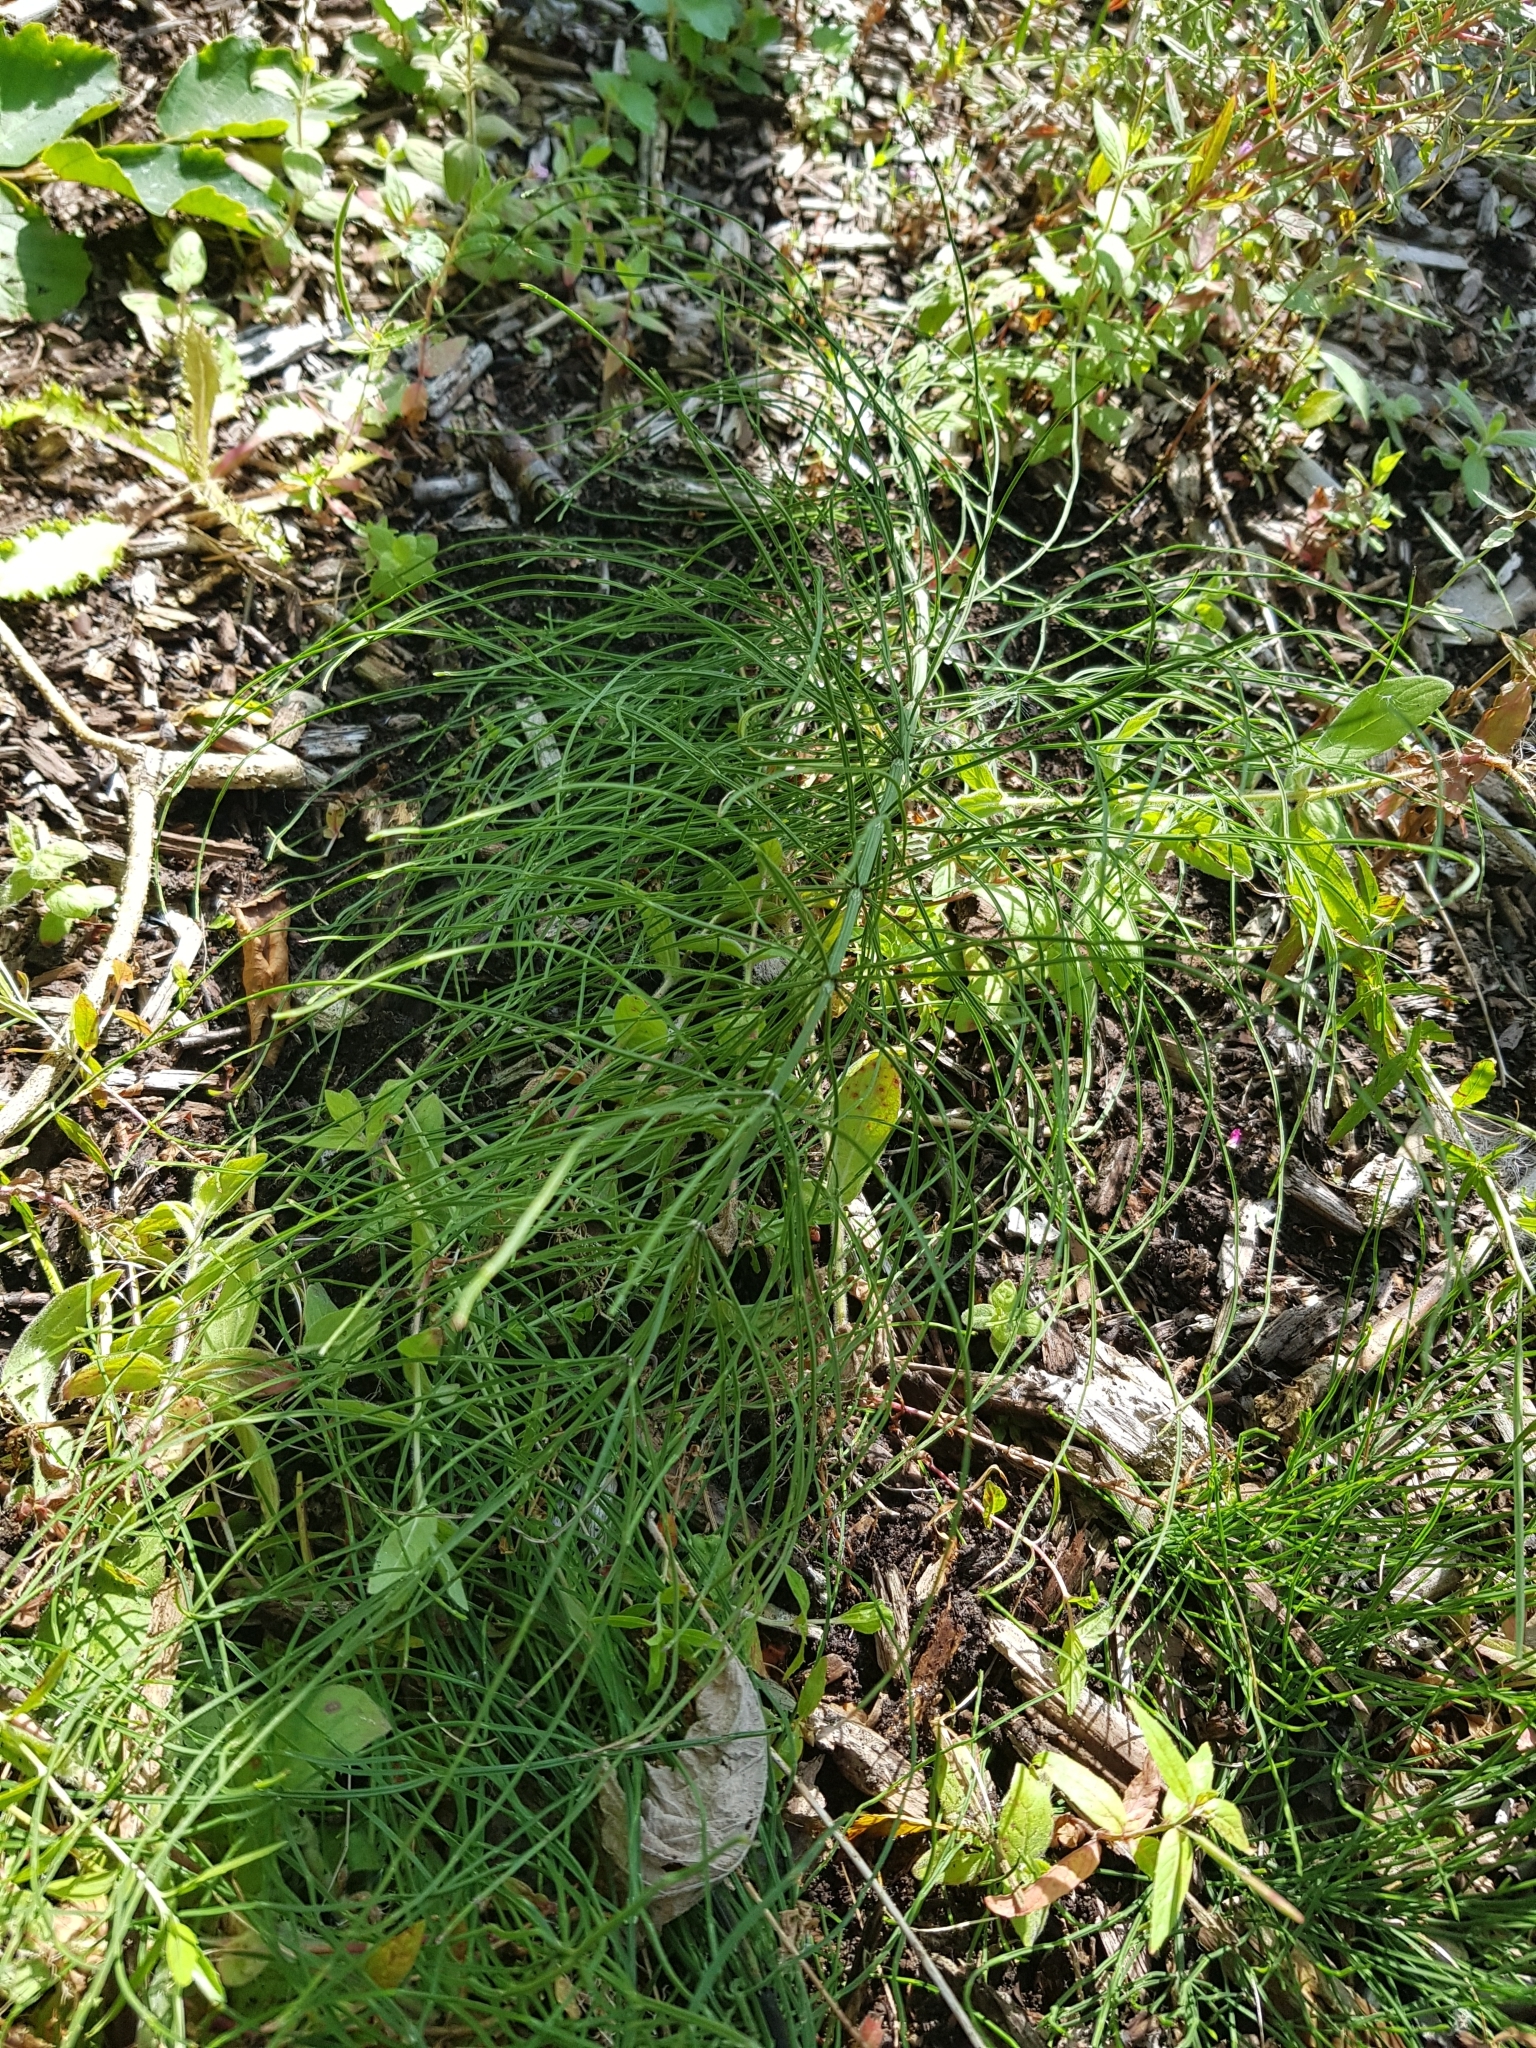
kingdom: Plantae
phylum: Tracheophyta
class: Polypodiopsida
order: Equisetales
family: Equisetaceae
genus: Equisetum
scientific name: Equisetum arvense
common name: Field horsetail
